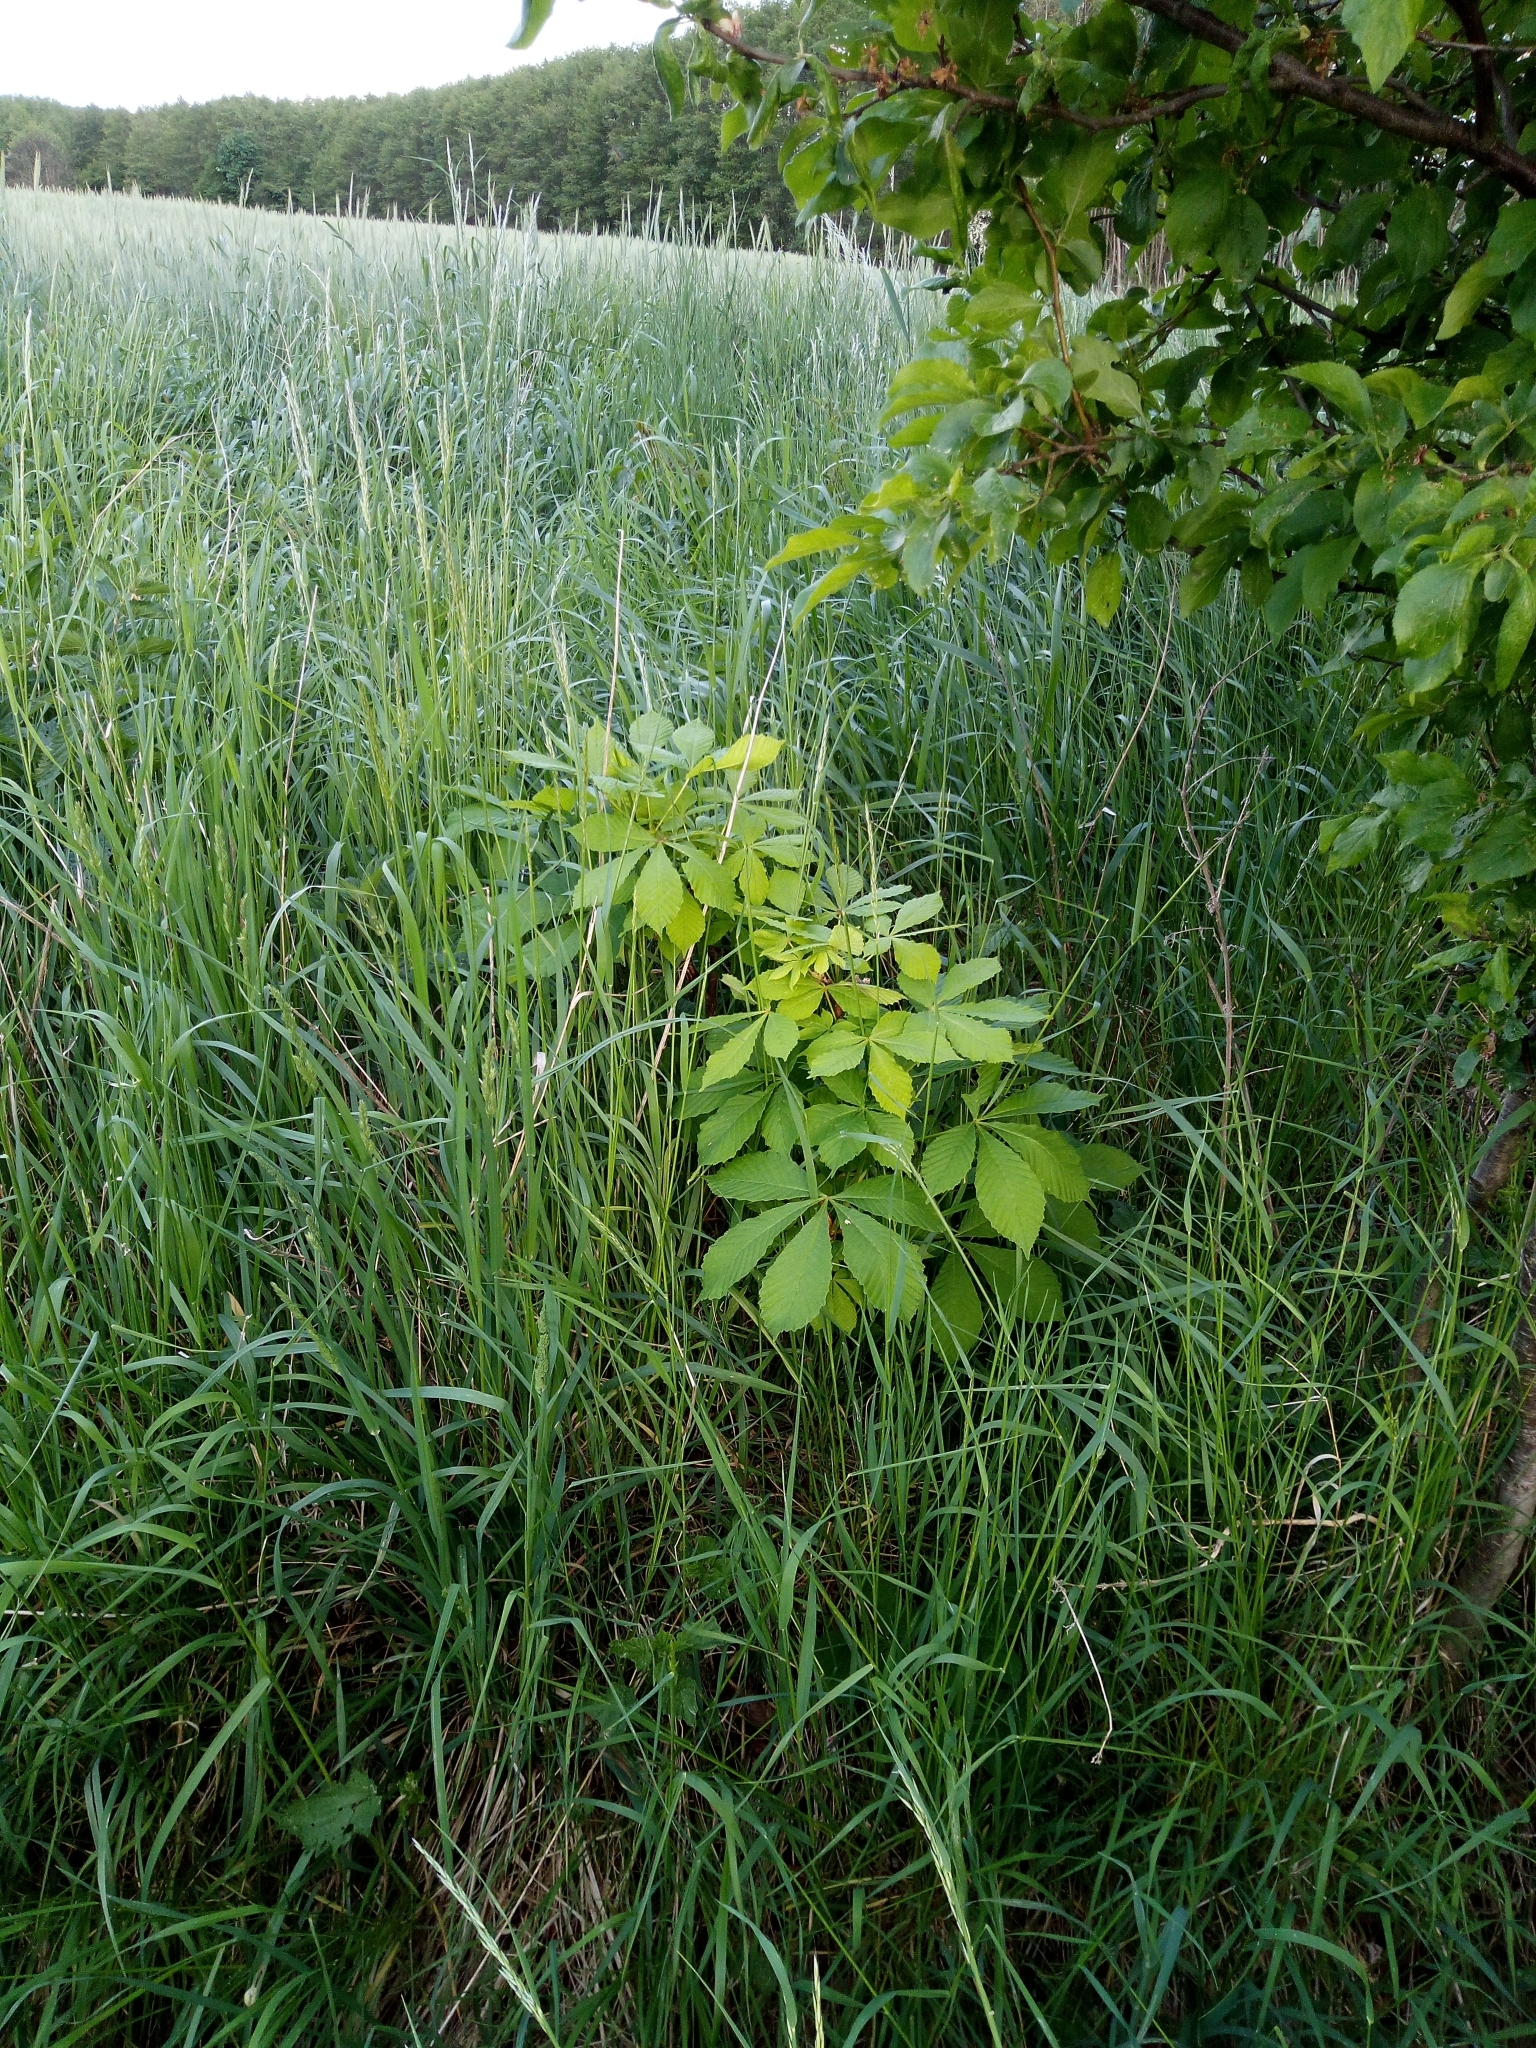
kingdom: Plantae
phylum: Tracheophyta
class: Magnoliopsida
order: Sapindales
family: Sapindaceae
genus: Aesculus
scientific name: Aesculus hippocastanum
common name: Horse-chestnut
